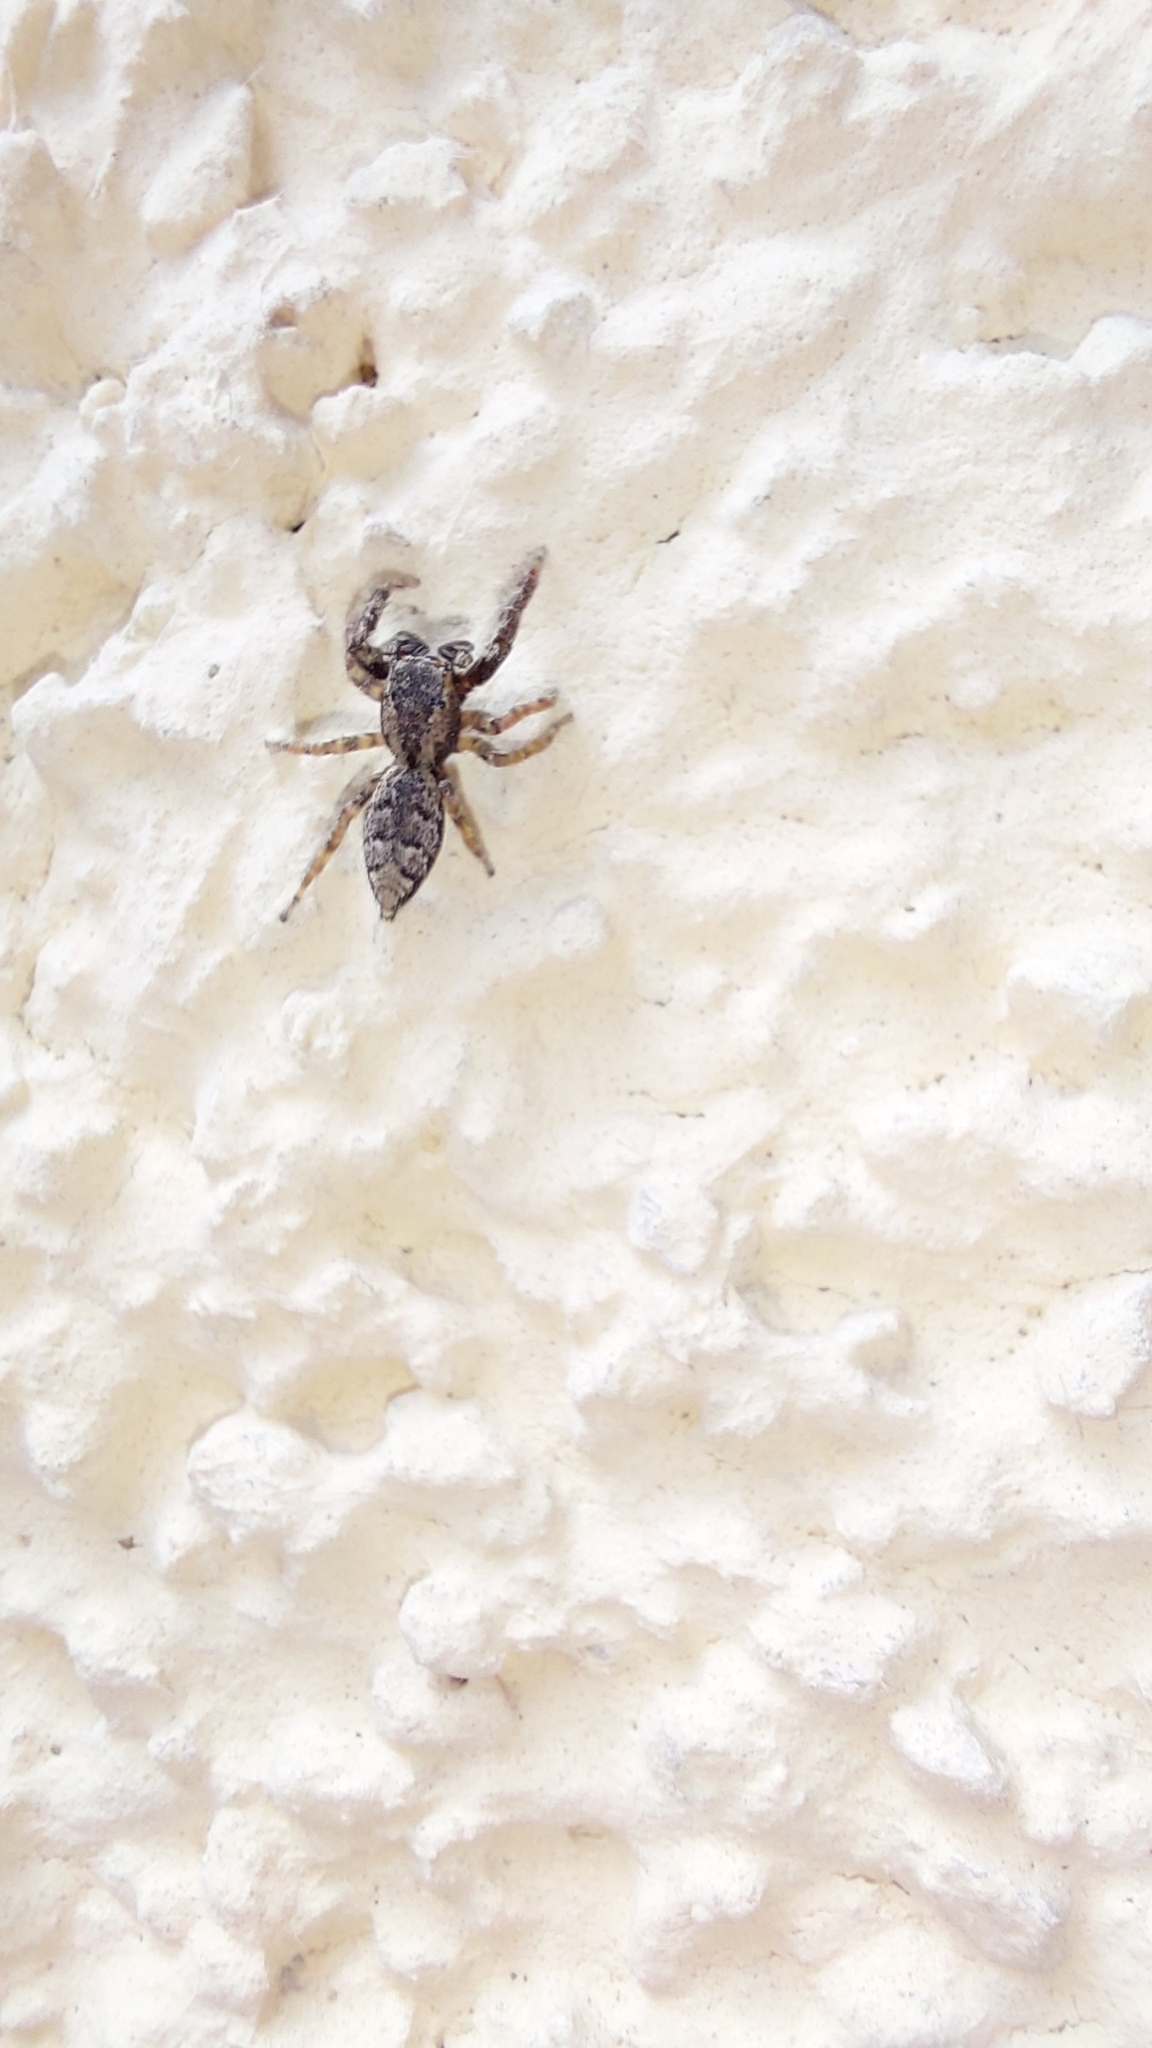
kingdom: Animalia
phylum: Arthropoda
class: Arachnida
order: Araneae
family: Salticidae
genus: Marpissa
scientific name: Marpissa muscosa
